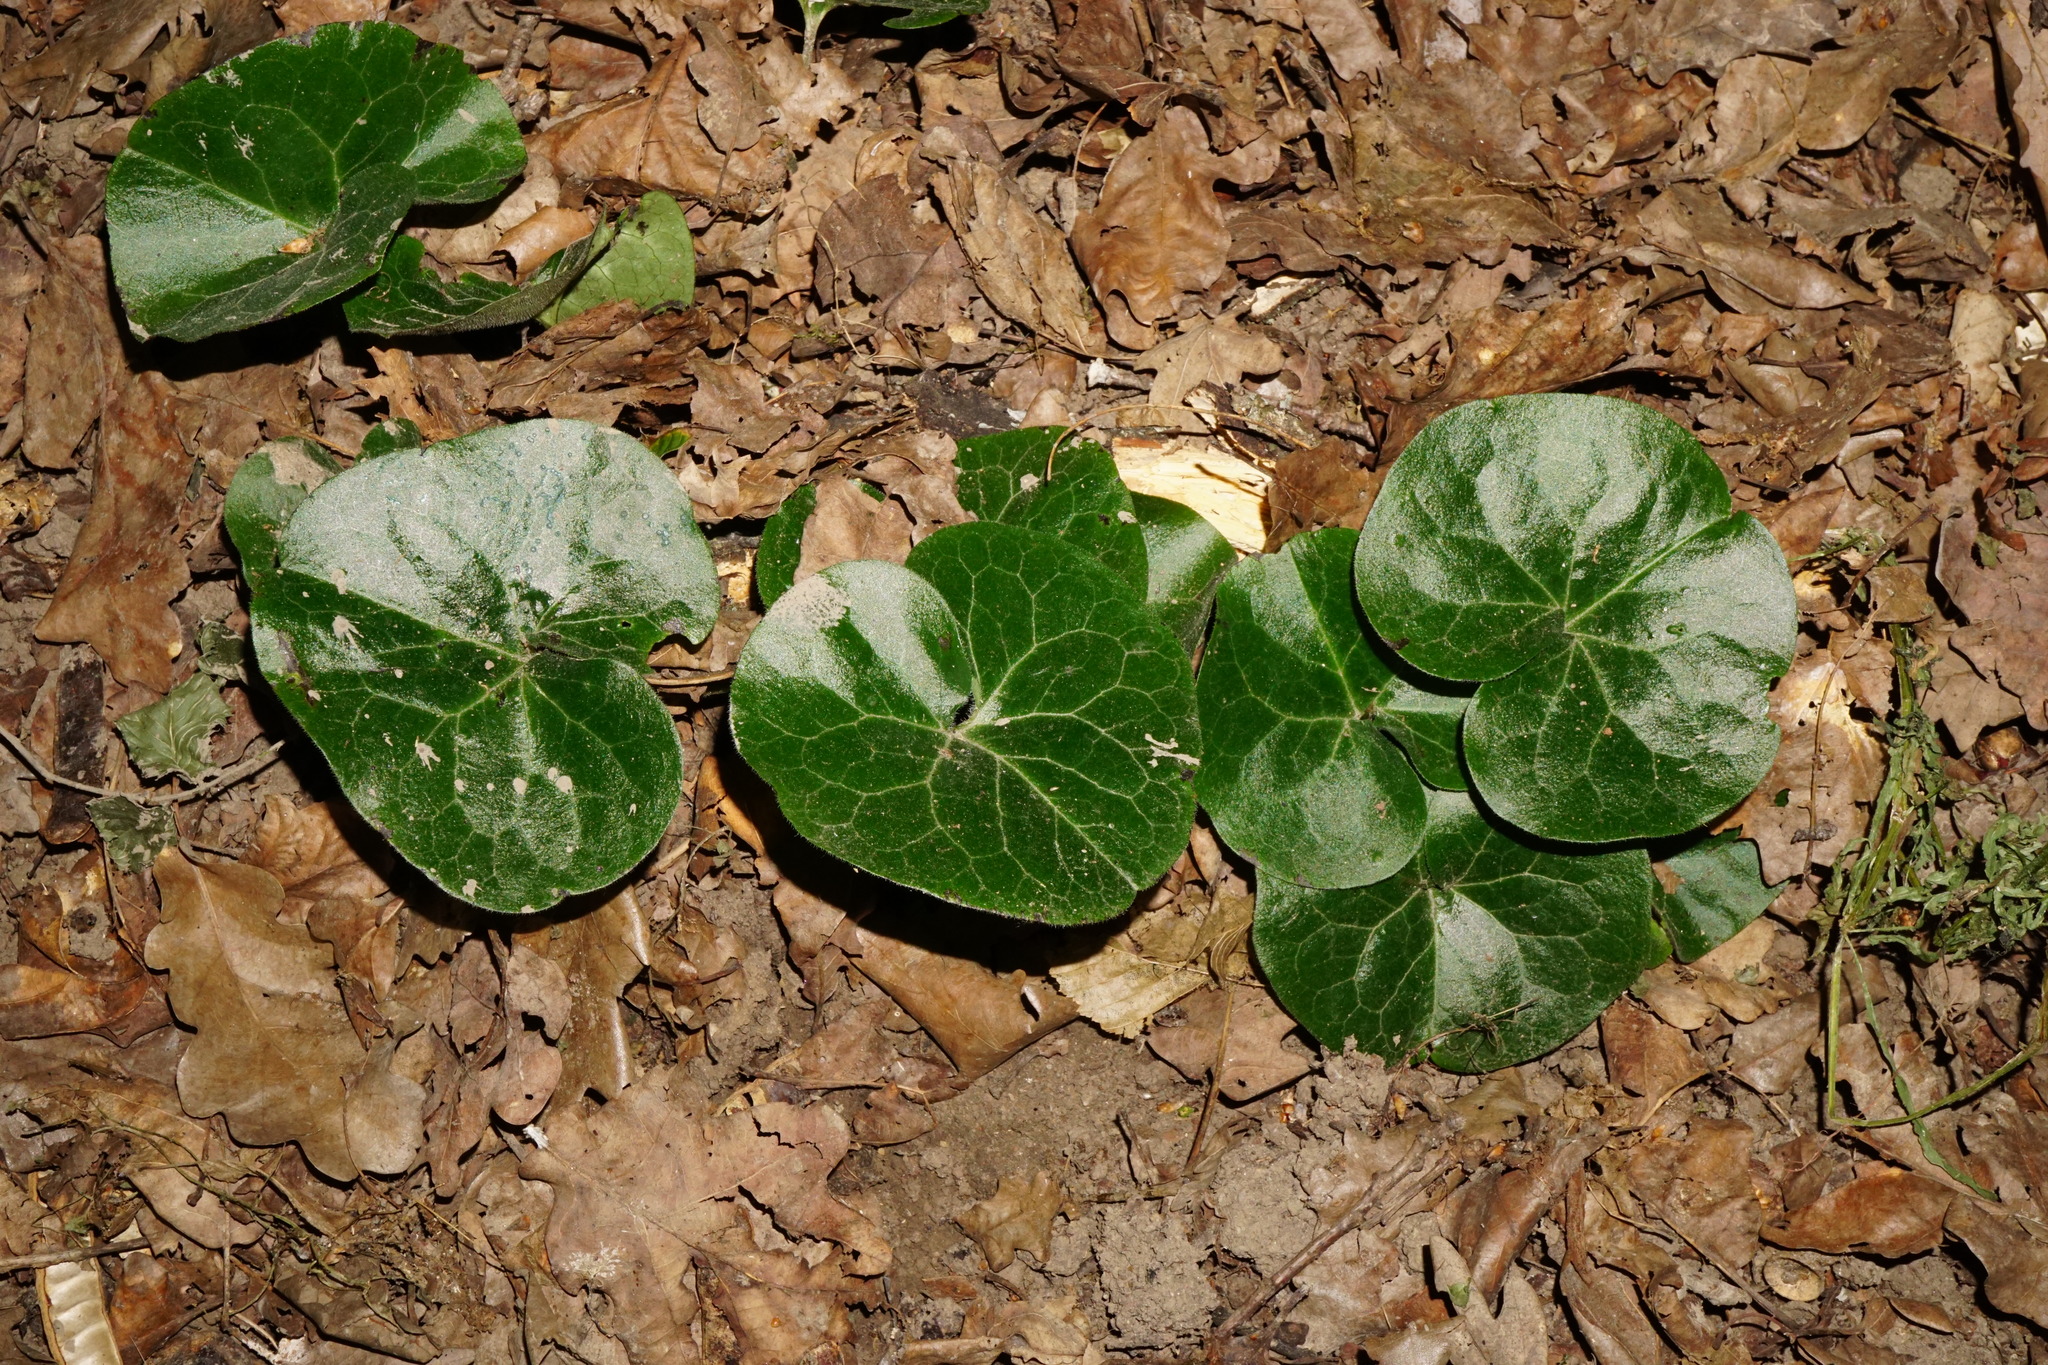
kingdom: Plantae
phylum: Tracheophyta
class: Magnoliopsida
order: Piperales
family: Aristolochiaceae
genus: Asarum
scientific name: Asarum europaeum
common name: Asarabacca
